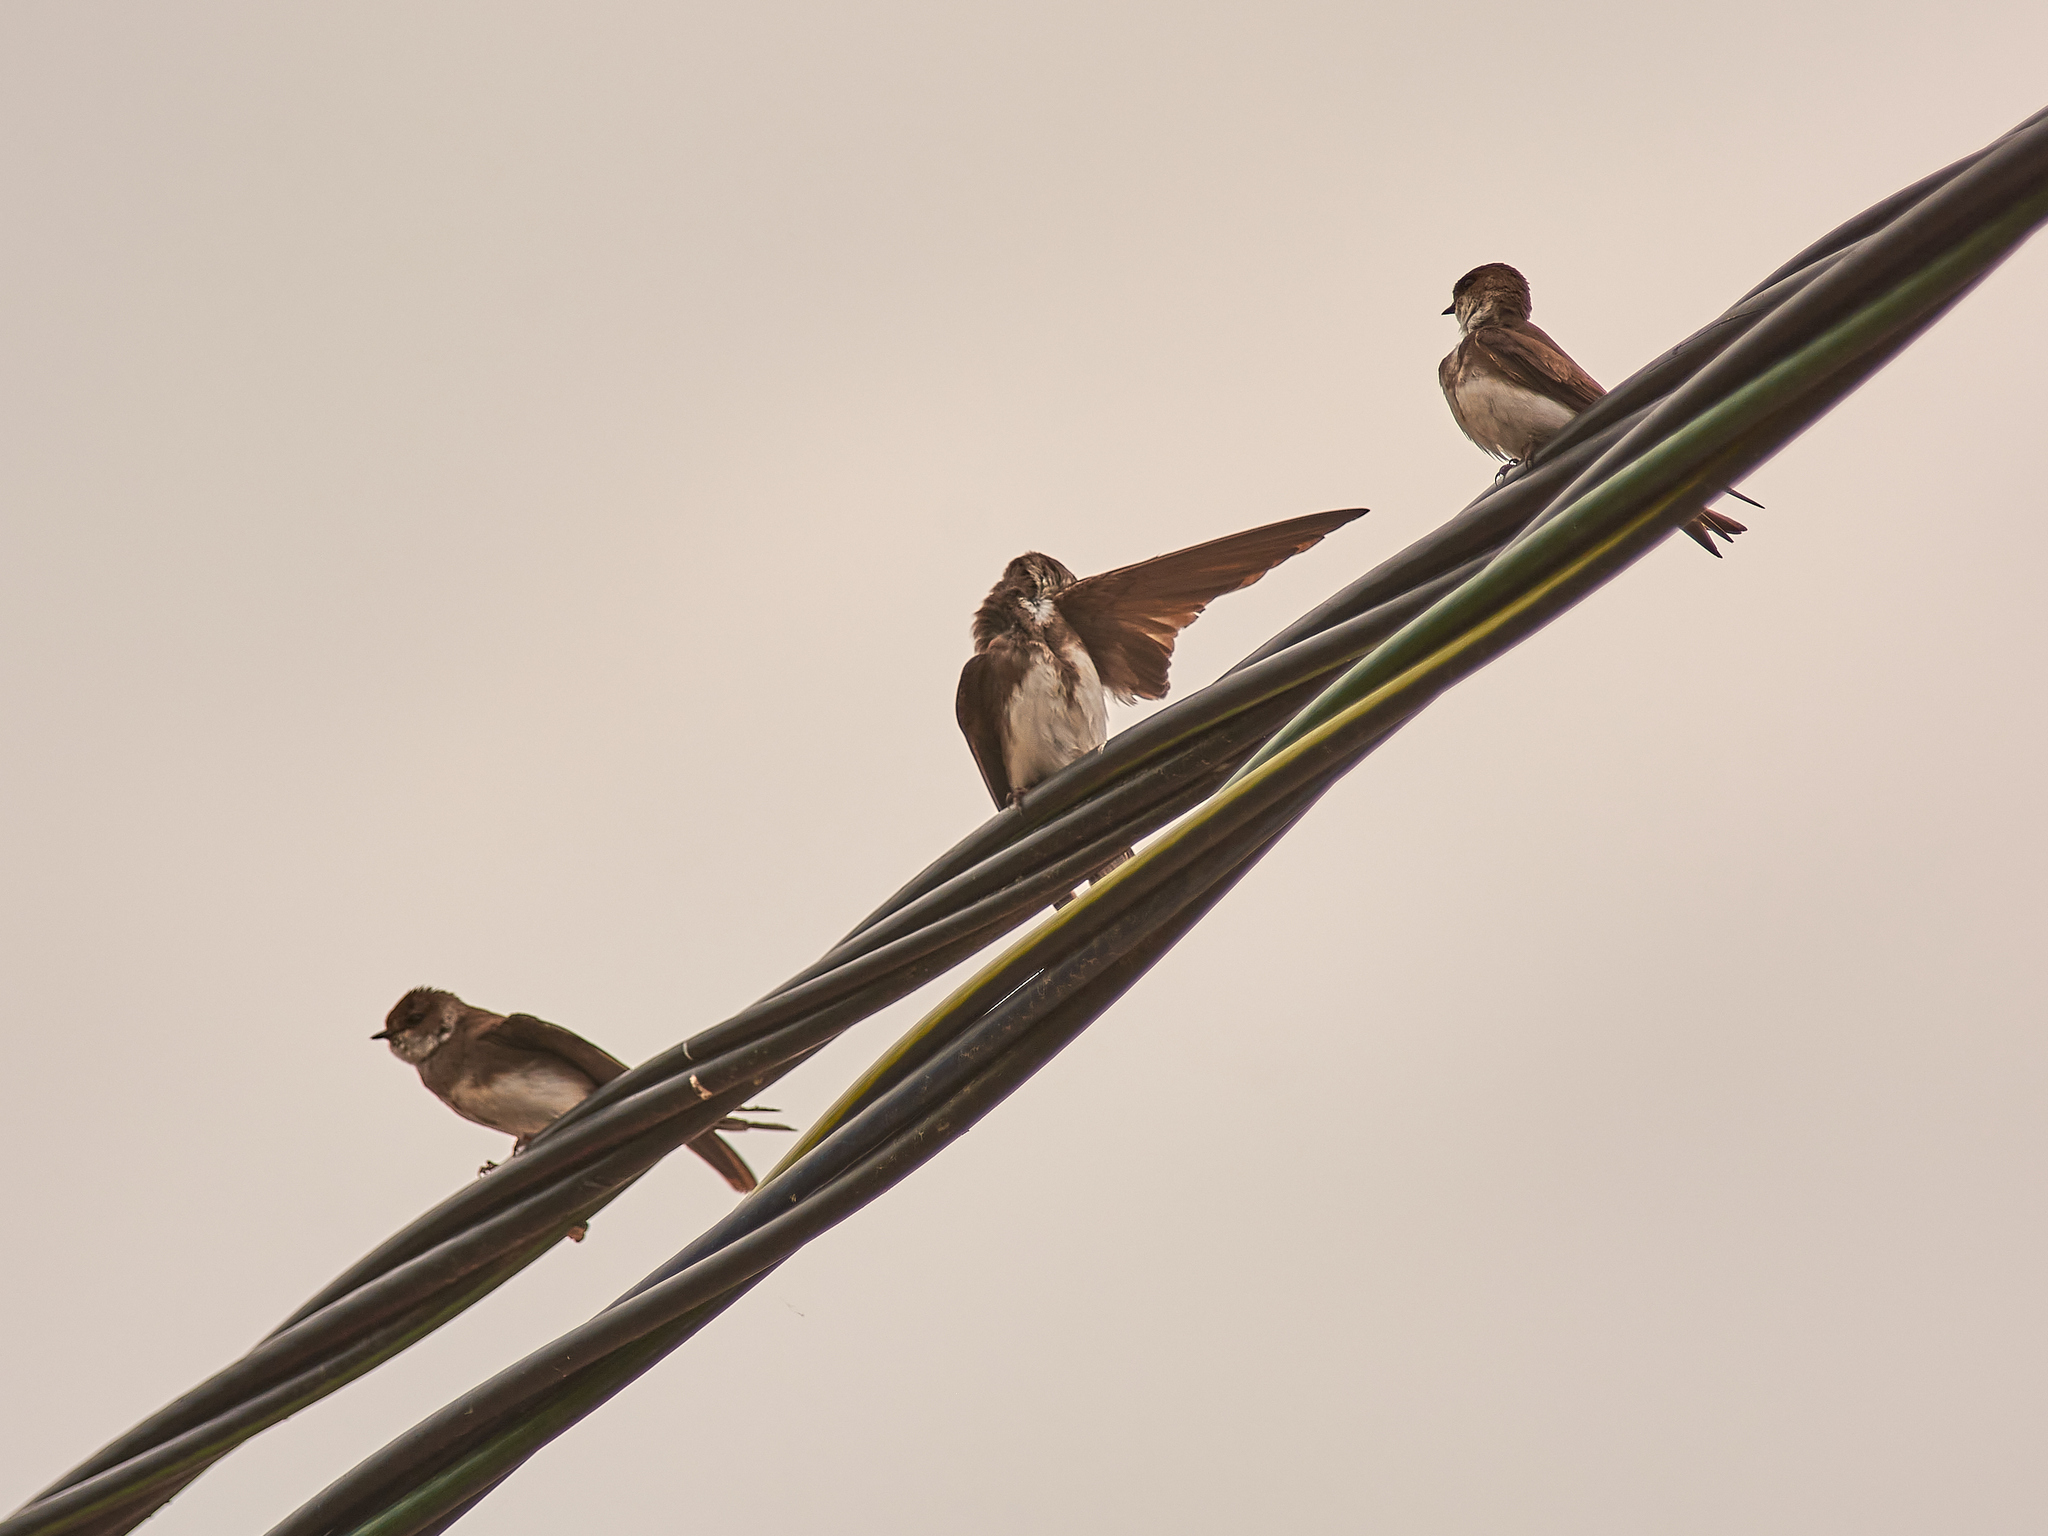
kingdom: Animalia
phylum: Chordata
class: Aves
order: Passeriformes
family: Hirundinidae
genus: Riparia
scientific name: Riparia riparia
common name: Sand martin
